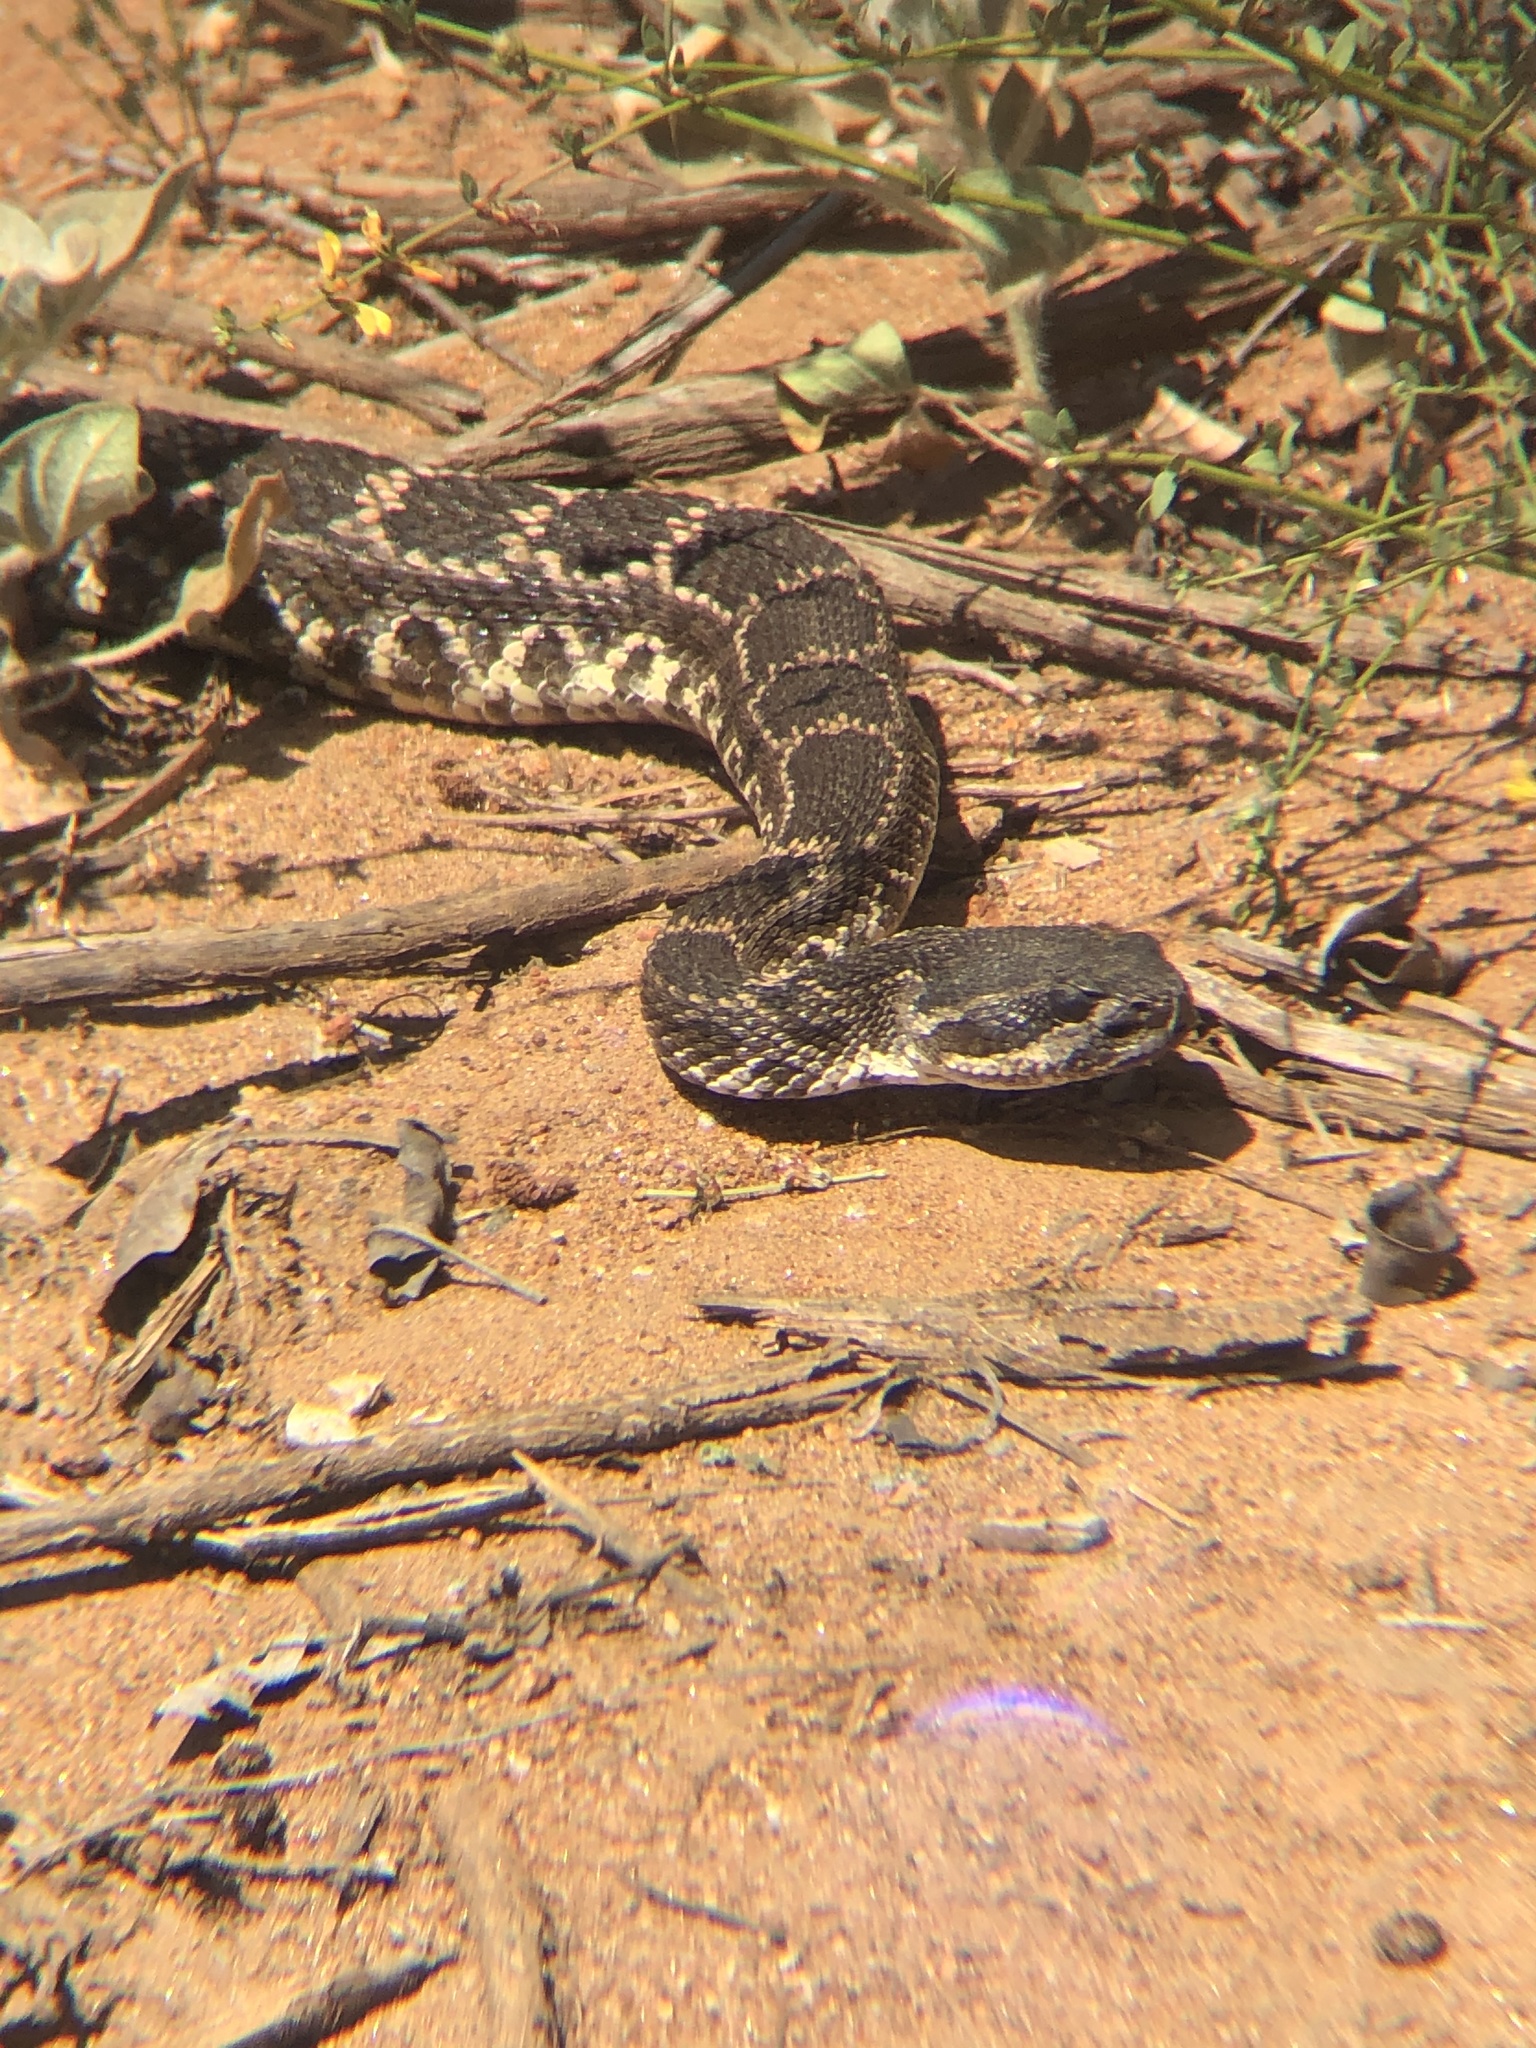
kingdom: Animalia
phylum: Chordata
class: Squamata
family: Viperidae
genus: Crotalus
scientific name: Crotalus oreganus
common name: Abyssus
